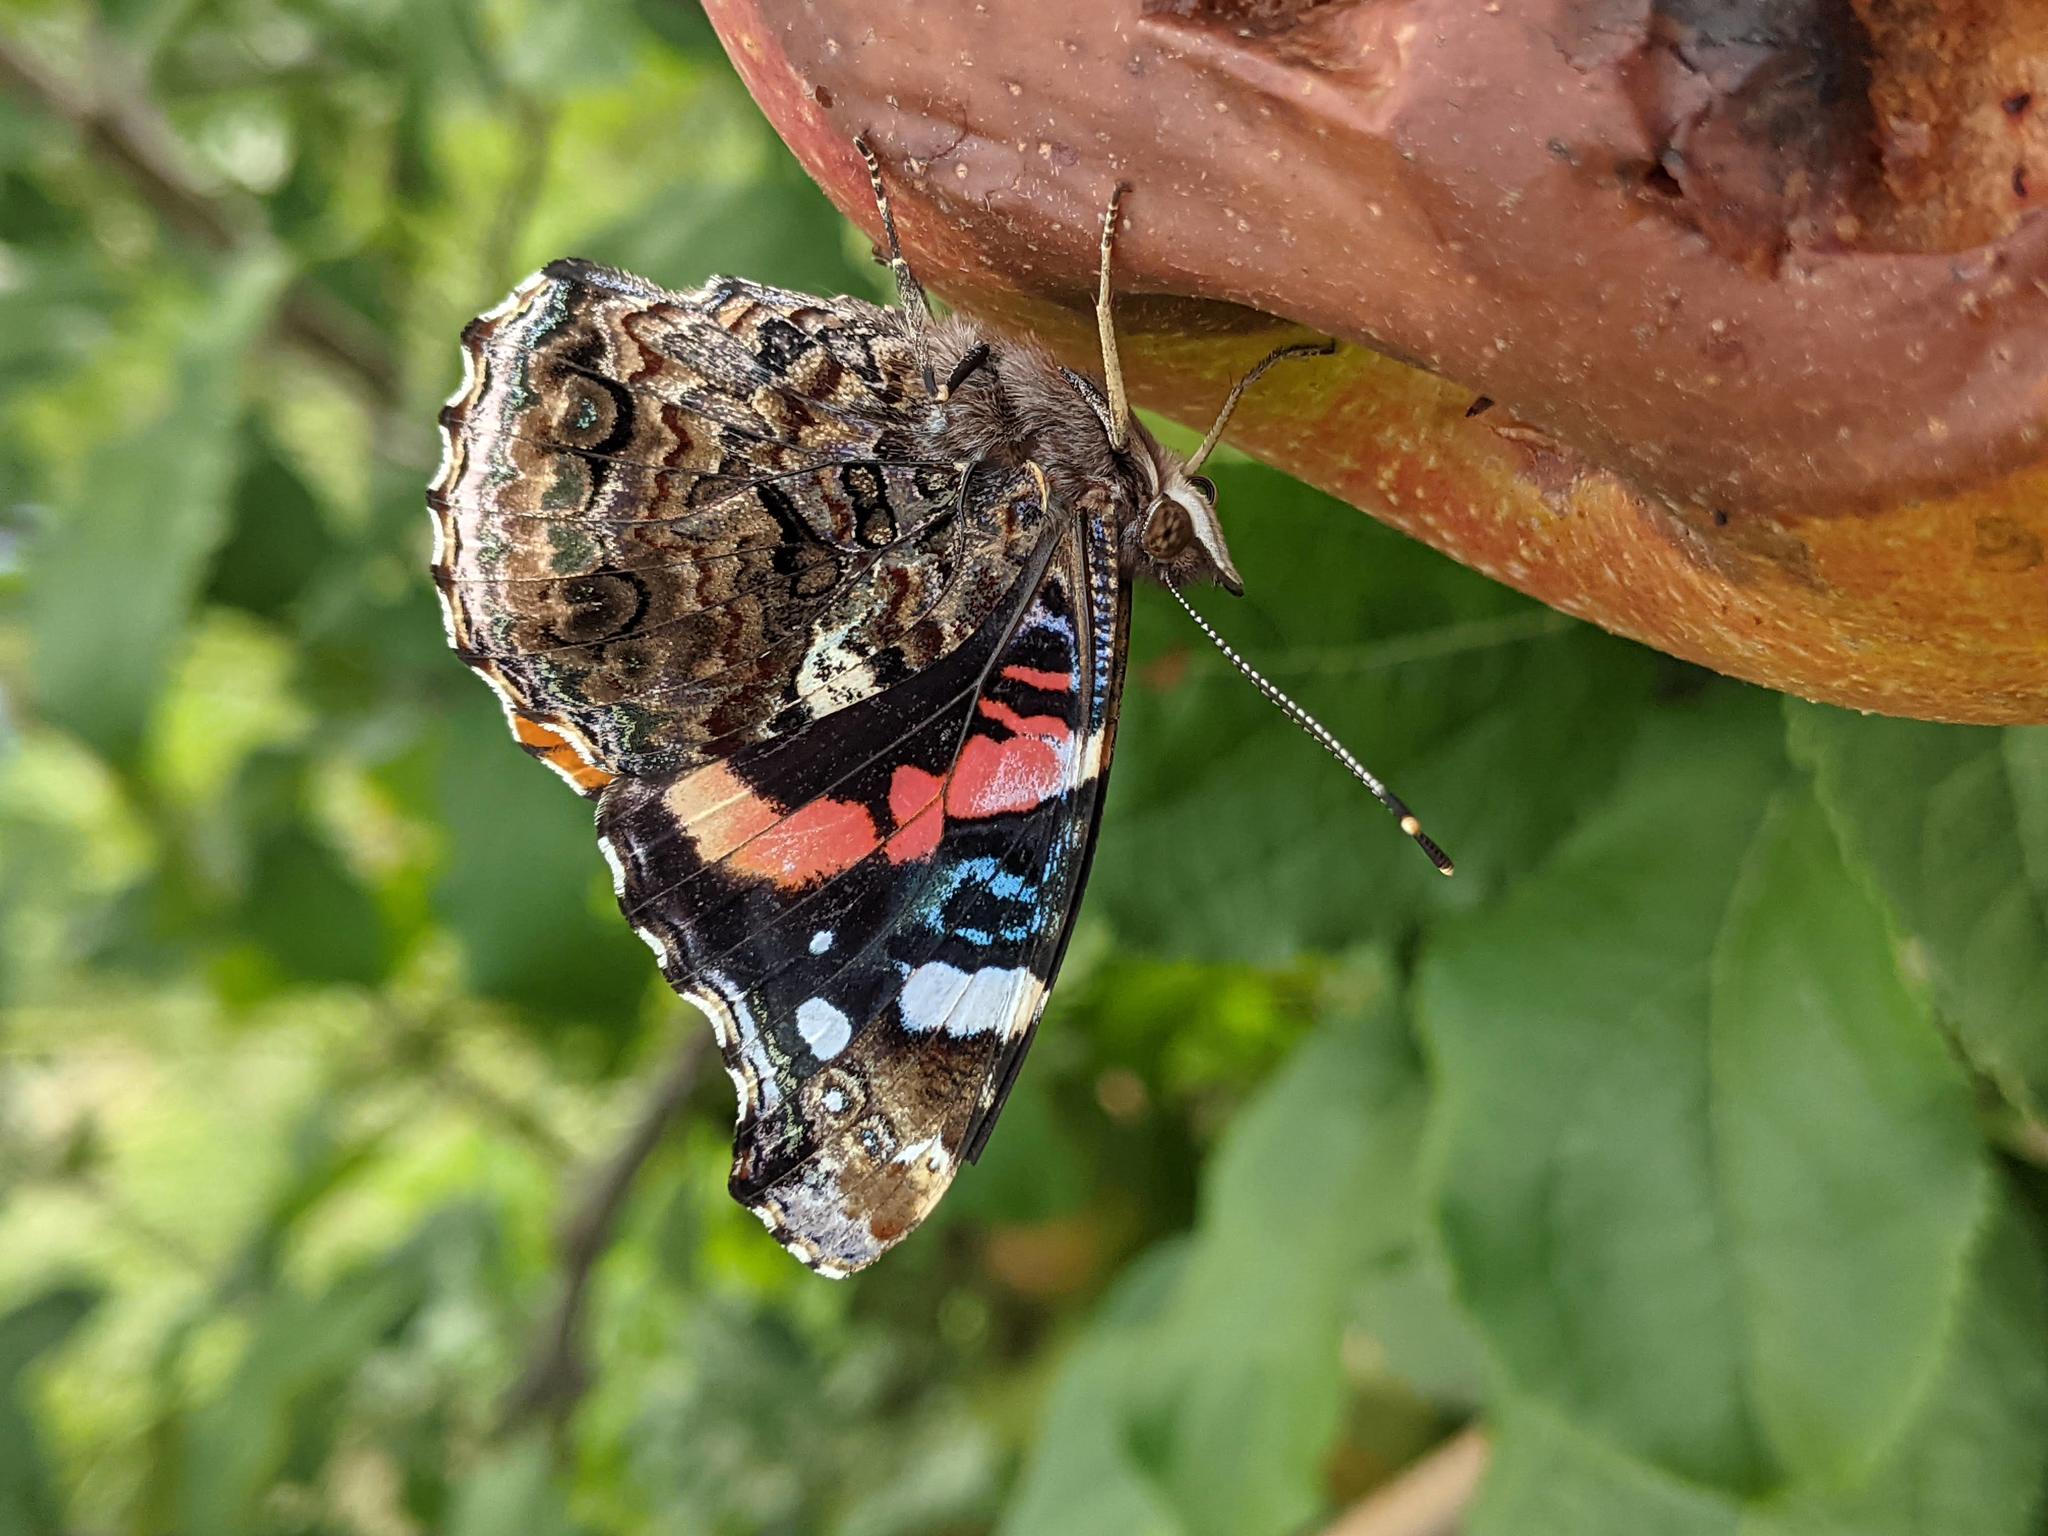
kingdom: Animalia
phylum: Arthropoda
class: Insecta
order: Lepidoptera
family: Nymphalidae
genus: Vanessa
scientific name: Vanessa atalanta
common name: Red admiral
